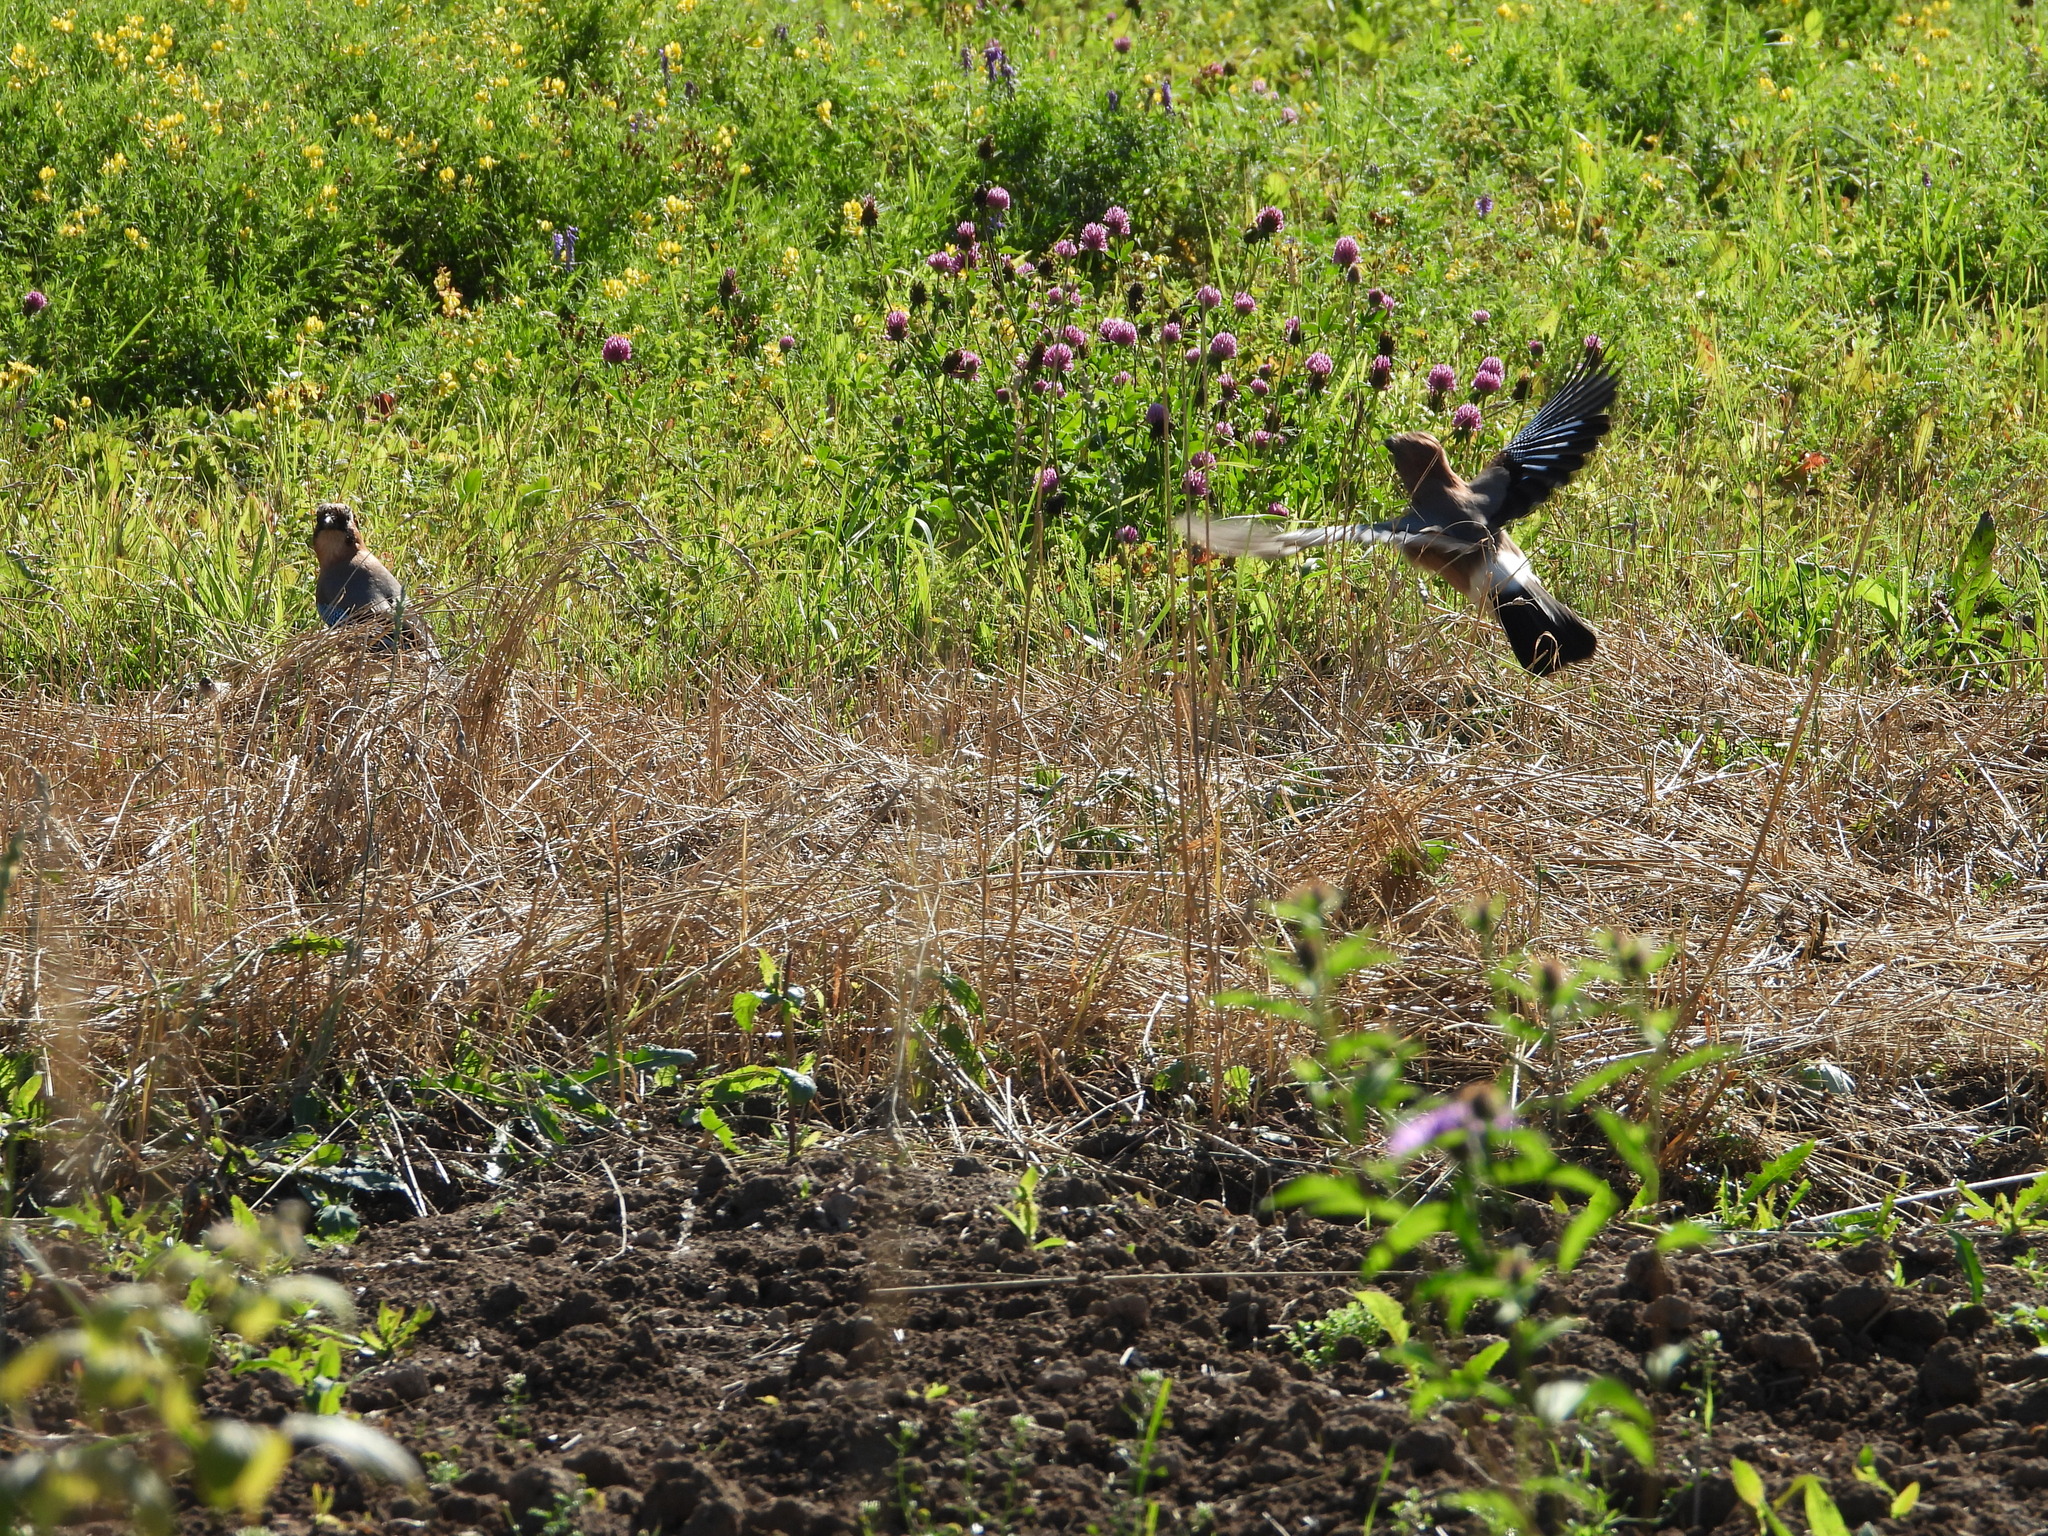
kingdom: Animalia
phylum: Chordata
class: Aves
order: Passeriformes
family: Corvidae
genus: Garrulus
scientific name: Garrulus glandarius
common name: Eurasian jay
